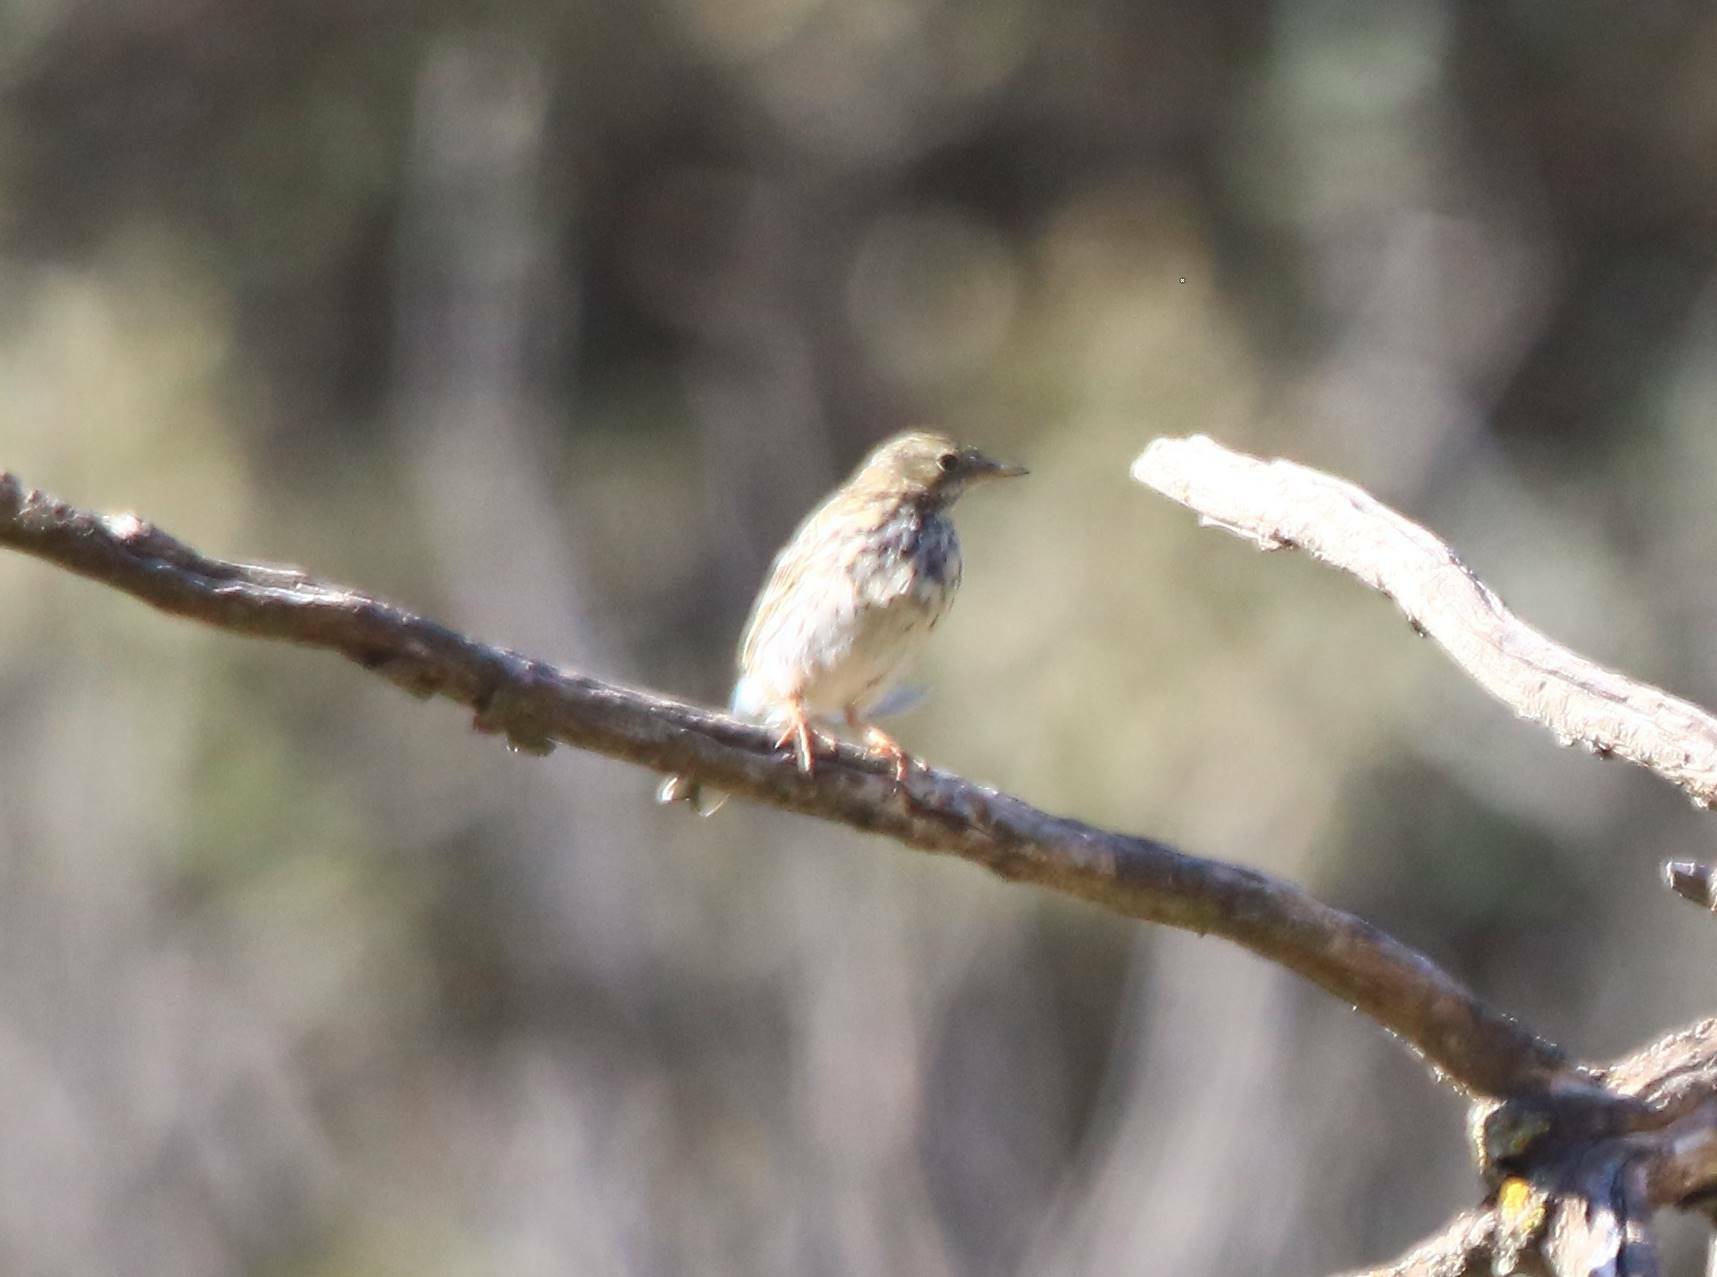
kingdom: Animalia
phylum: Chordata
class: Aves
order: Passeriformes
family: Motacillidae
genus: Anthus
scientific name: Anthus pratensis
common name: Meadow pipit
